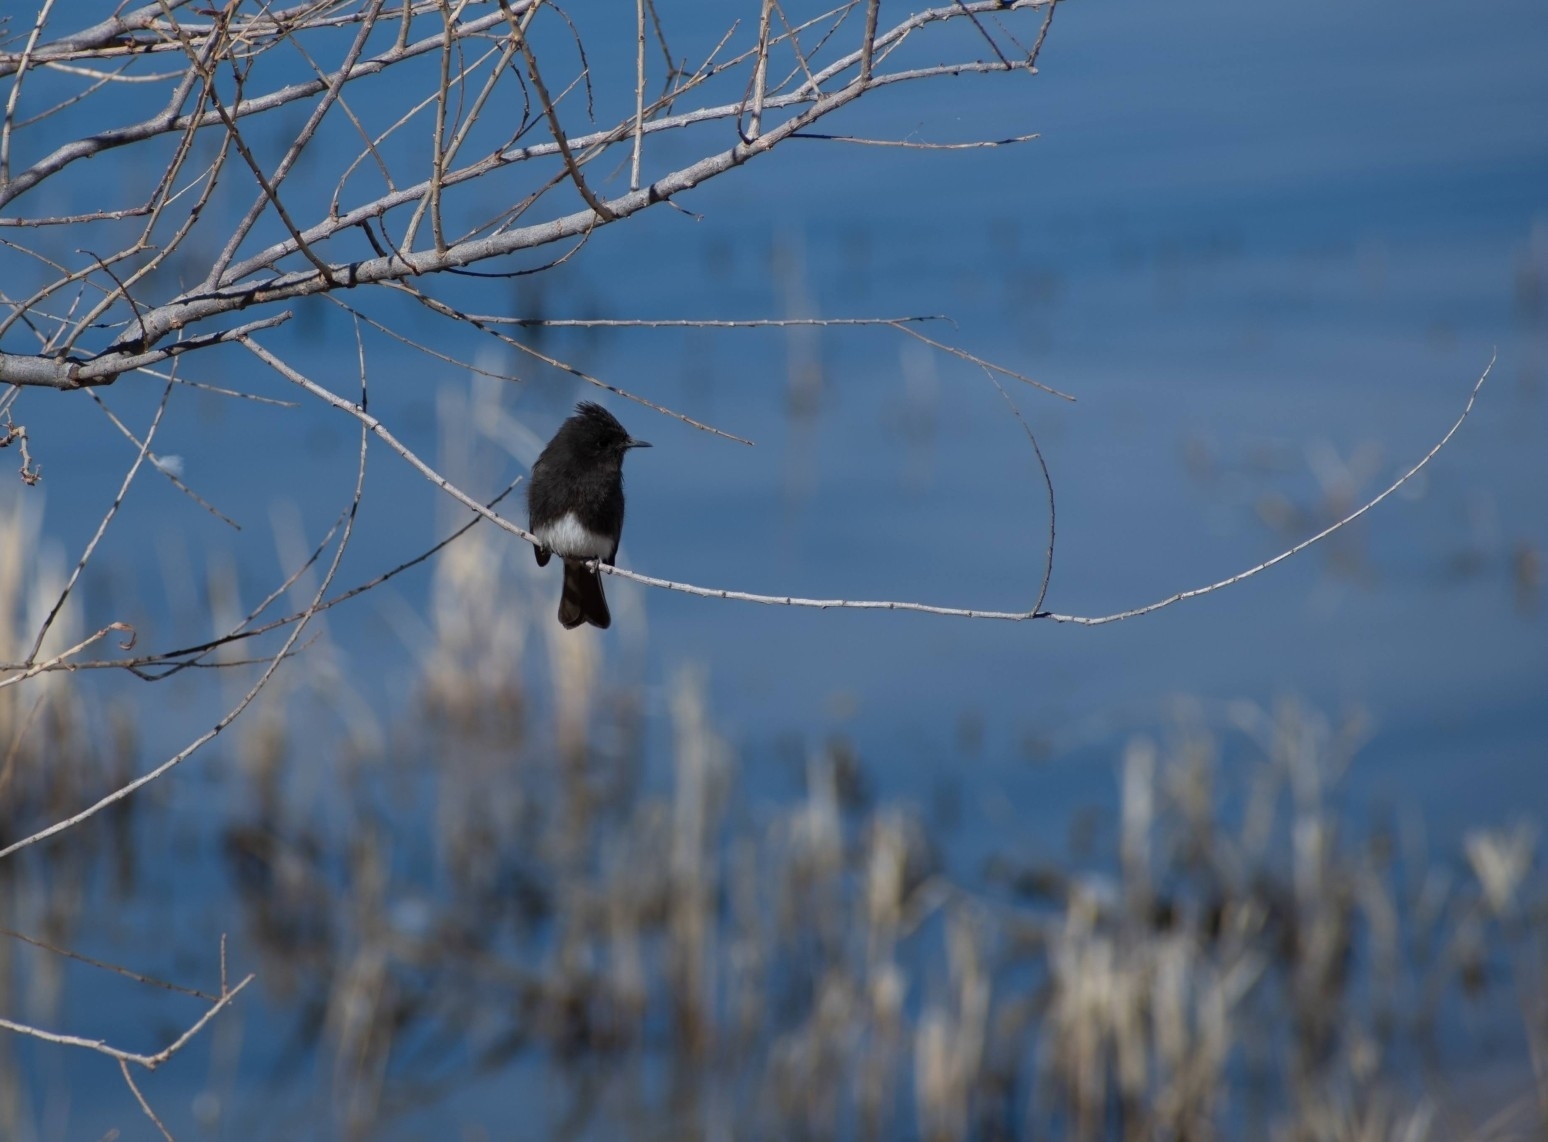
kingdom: Animalia
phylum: Chordata
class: Aves
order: Passeriformes
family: Tyrannidae
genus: Sayornis
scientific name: Sayornis nigricans
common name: Black phoebe
